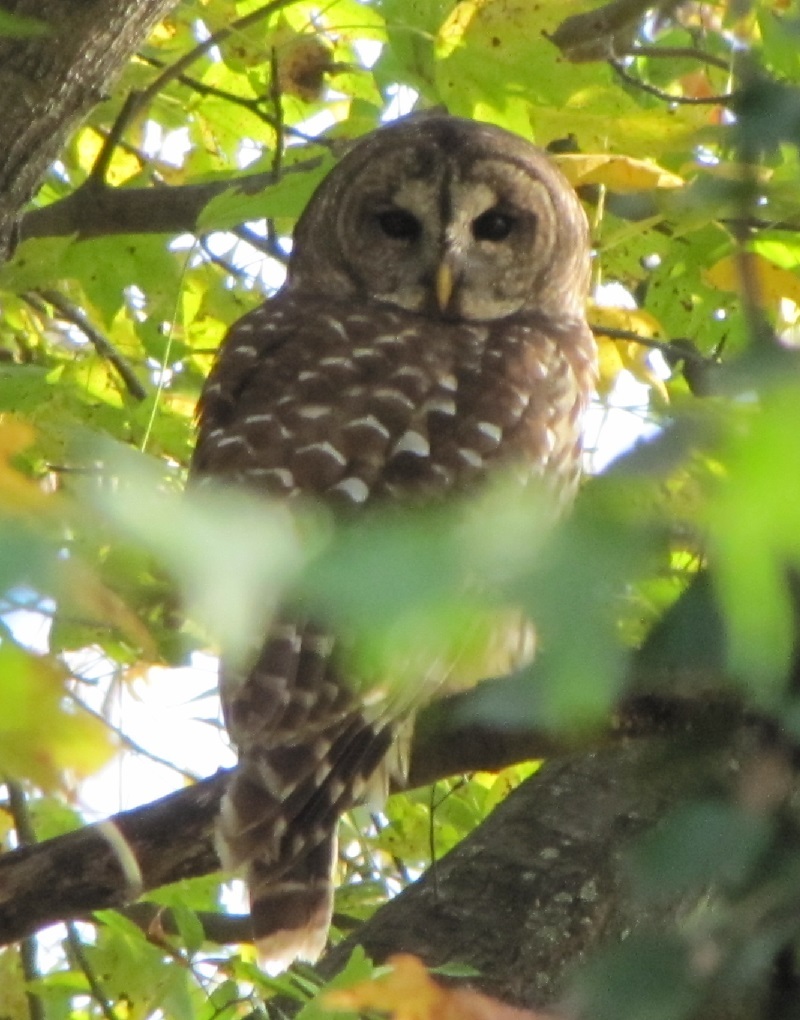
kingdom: Animalia
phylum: Chordata
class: Aves
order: Strigiformes
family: Strigidae
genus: Strix
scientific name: Strix varia
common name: Barred owl
